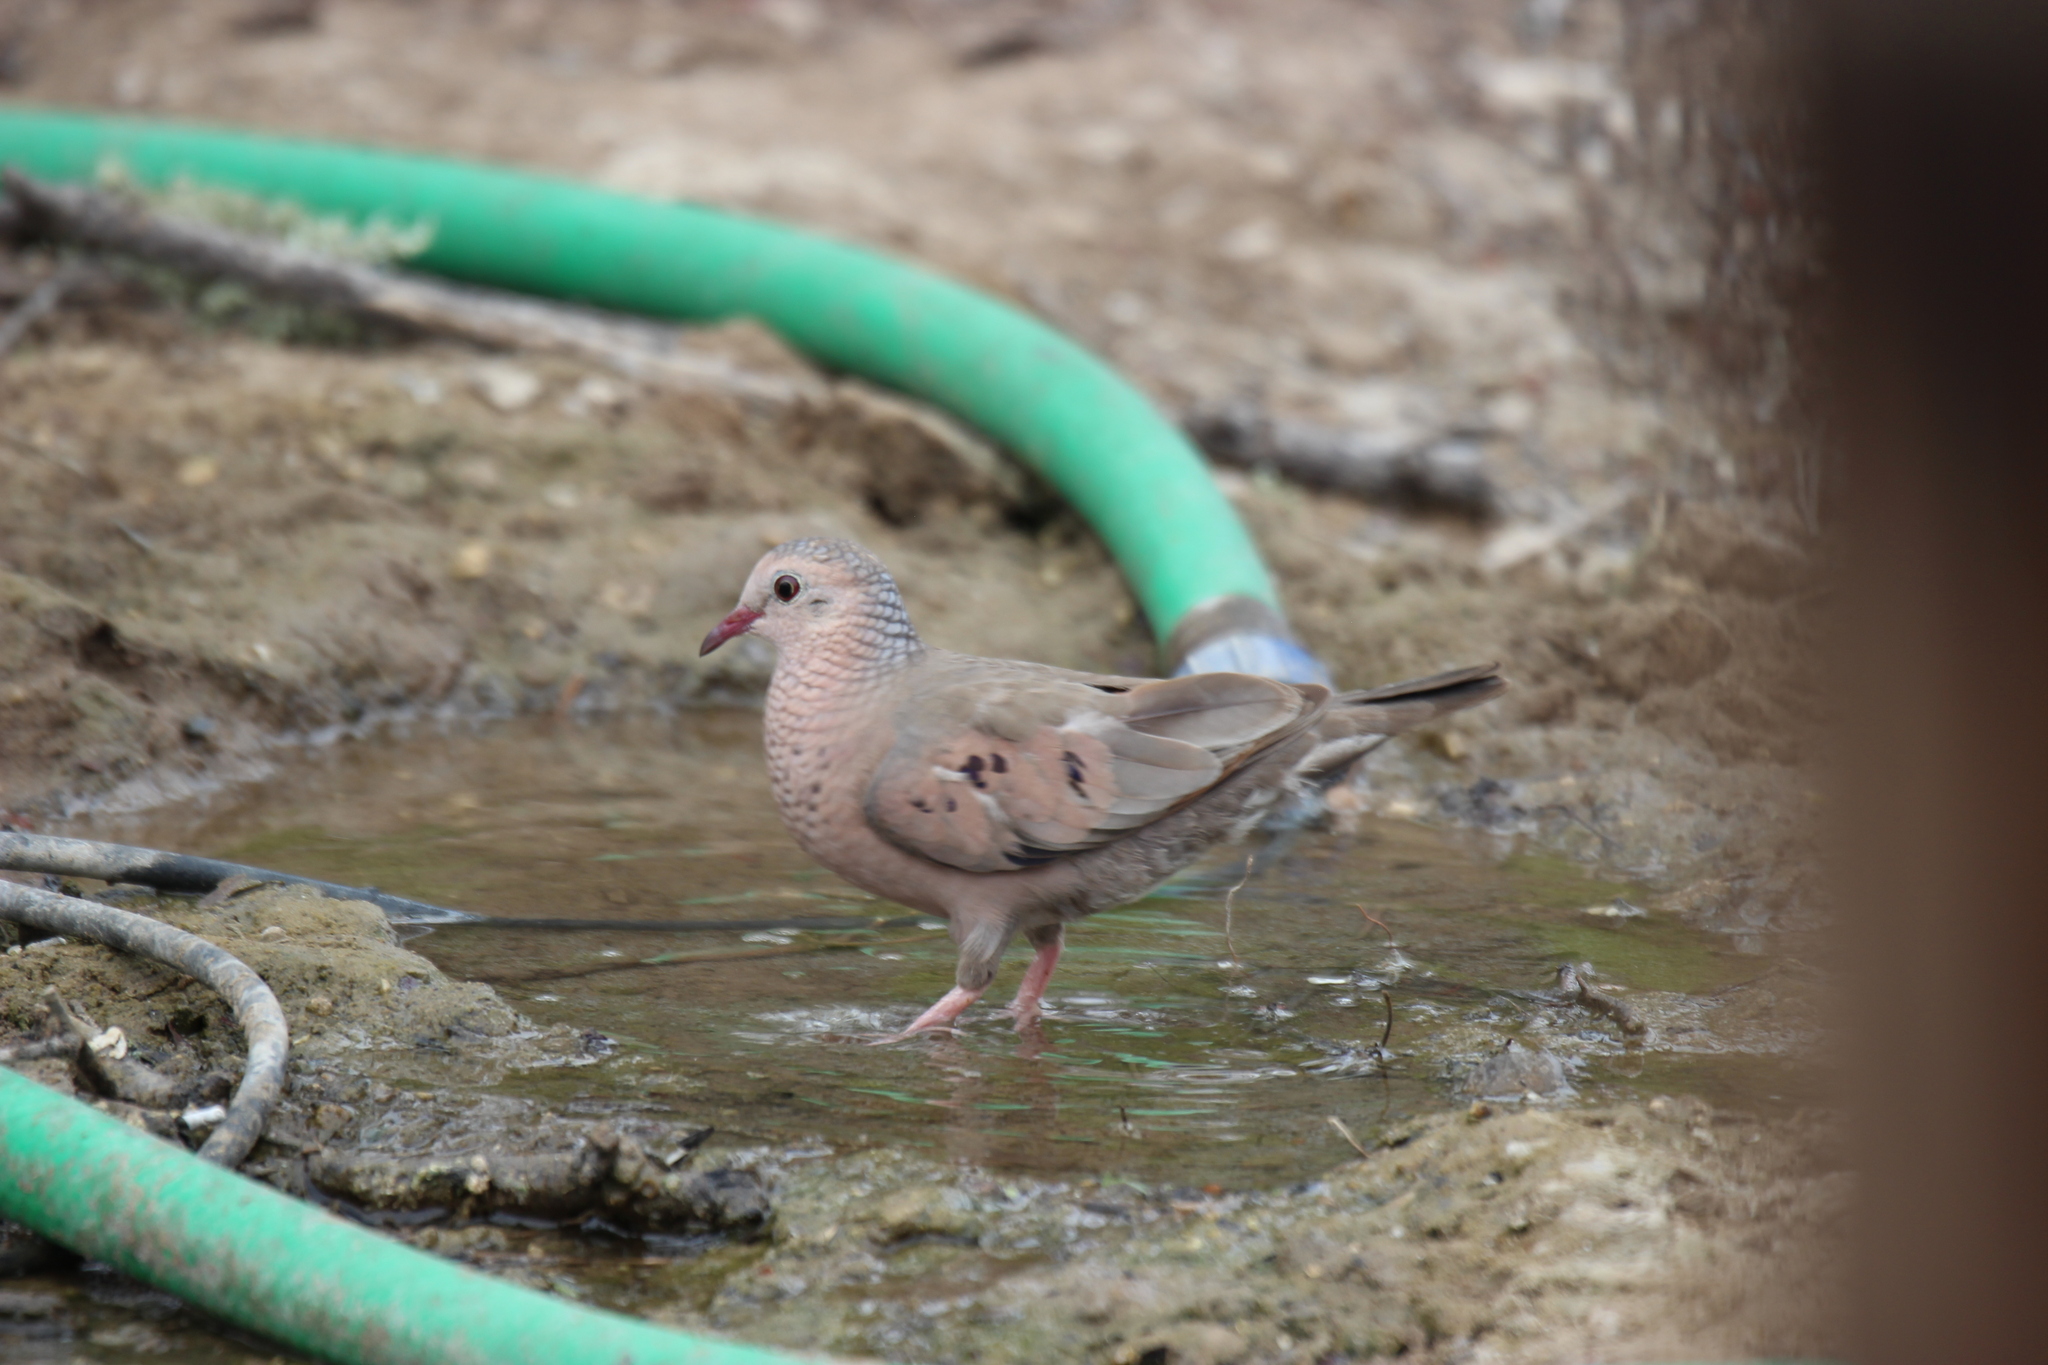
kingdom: Animalia
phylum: Chordata
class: Aves
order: Columbiformes
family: Columbidae
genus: Columbina
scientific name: Columbina passerina
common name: Common ground-dove
